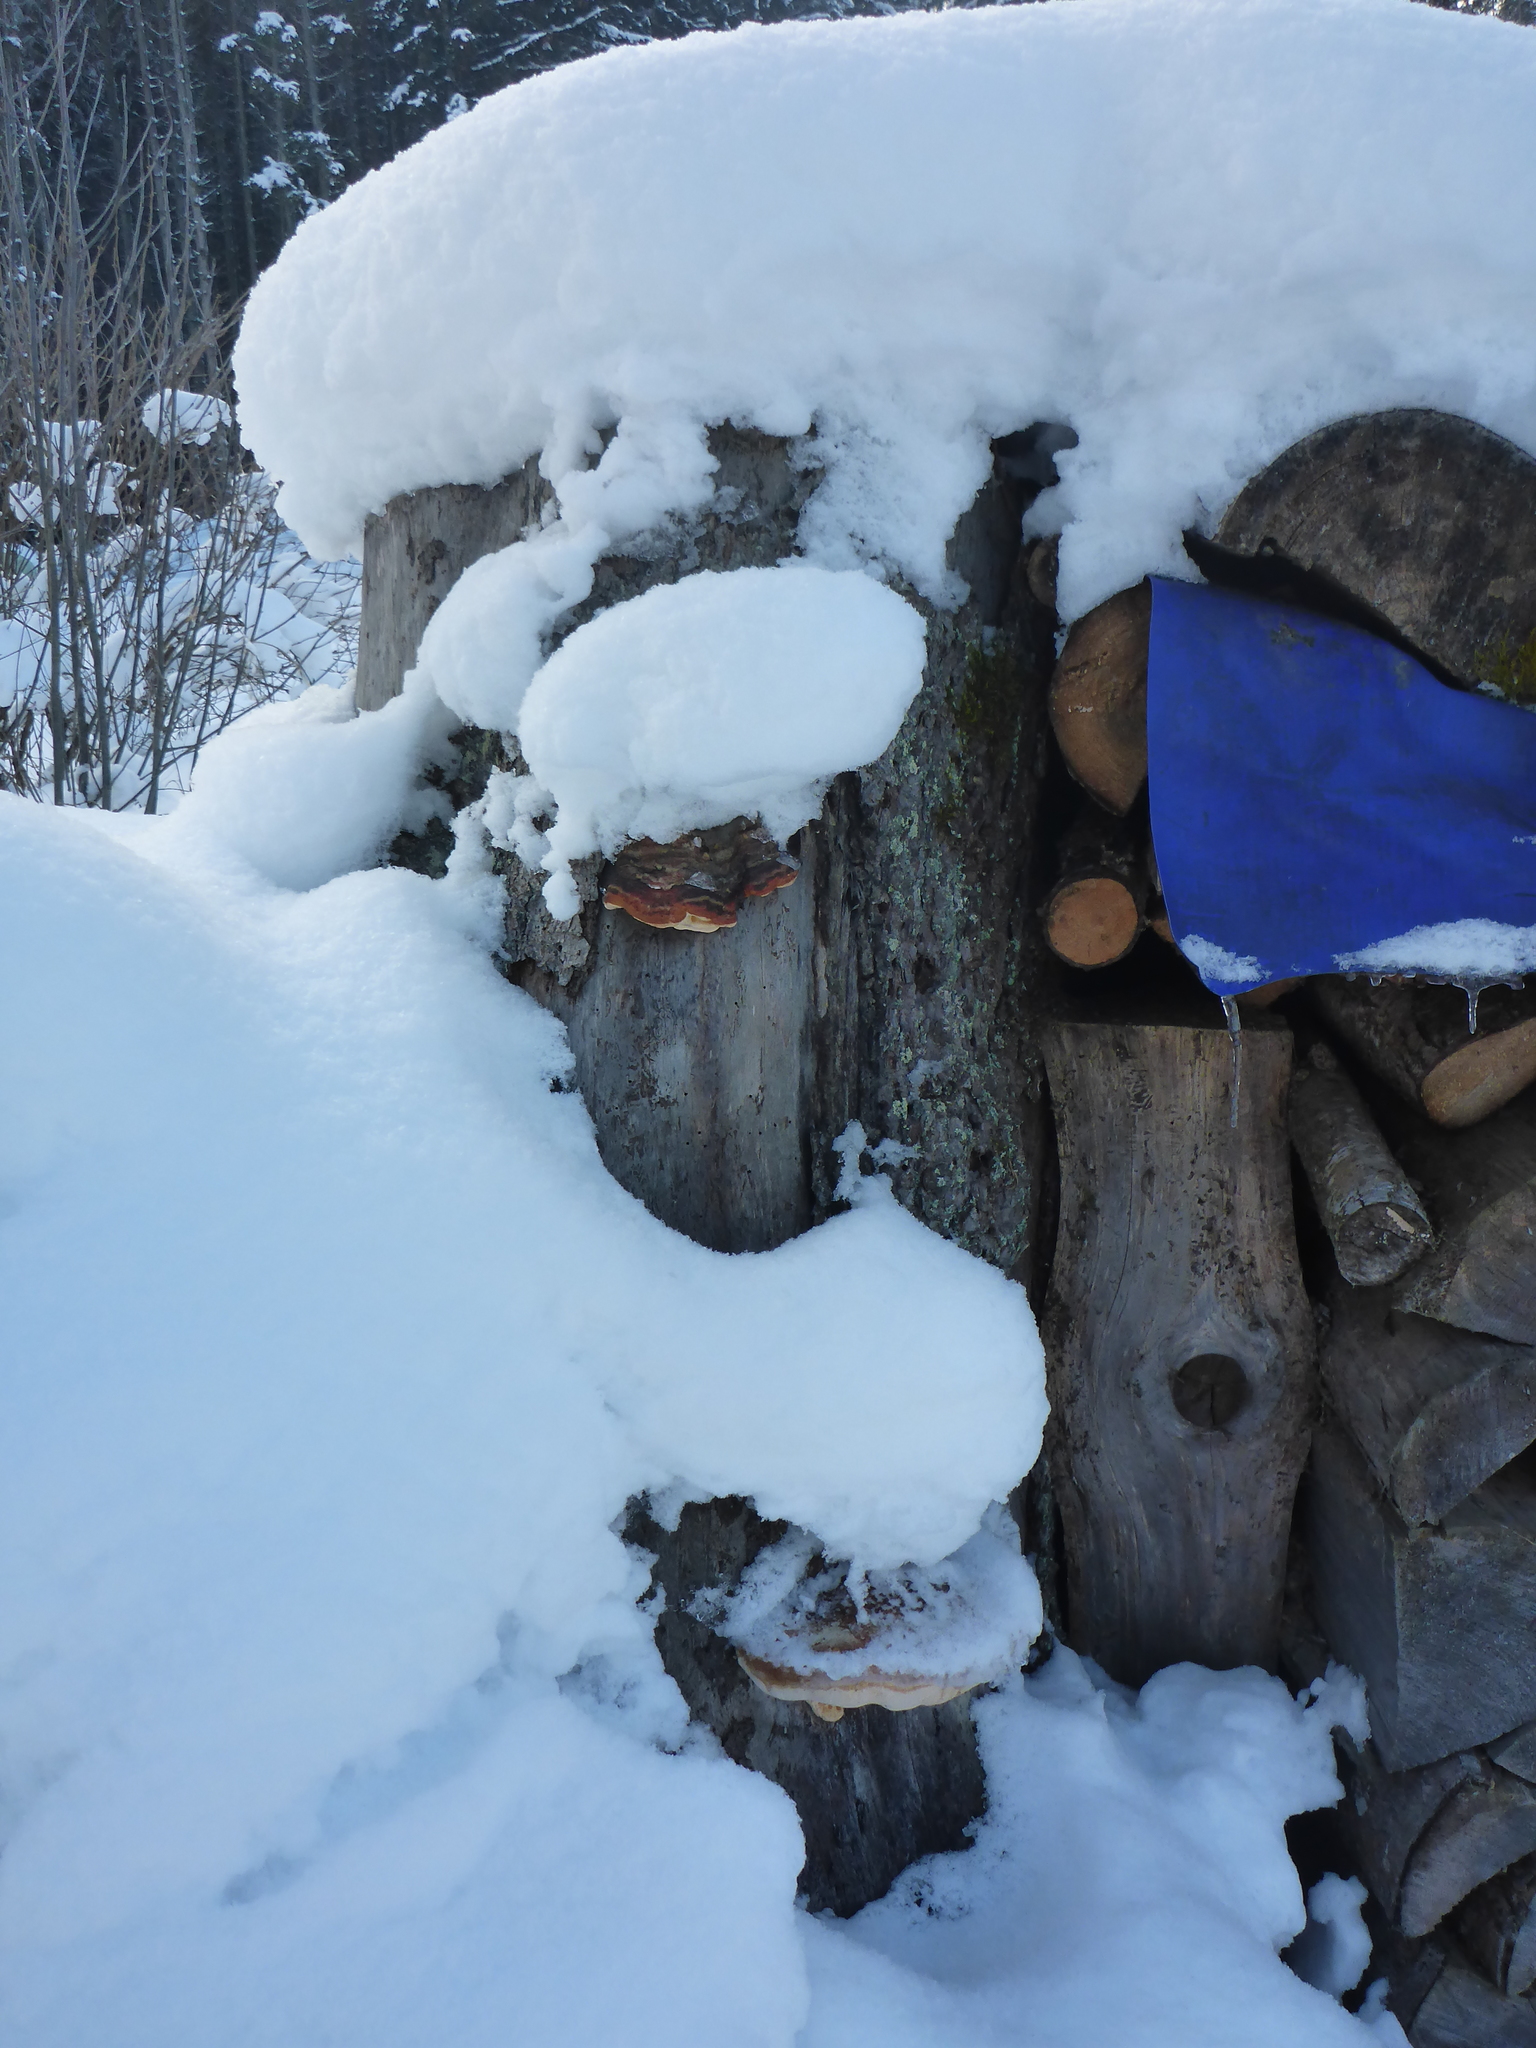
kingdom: Fungi
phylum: Basidiomycota
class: Agaricomycetes
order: Polyporales
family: Fomitopsidaceae
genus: Fomitopsis
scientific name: Fomitopsis pinicola
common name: Red-belted bracket
